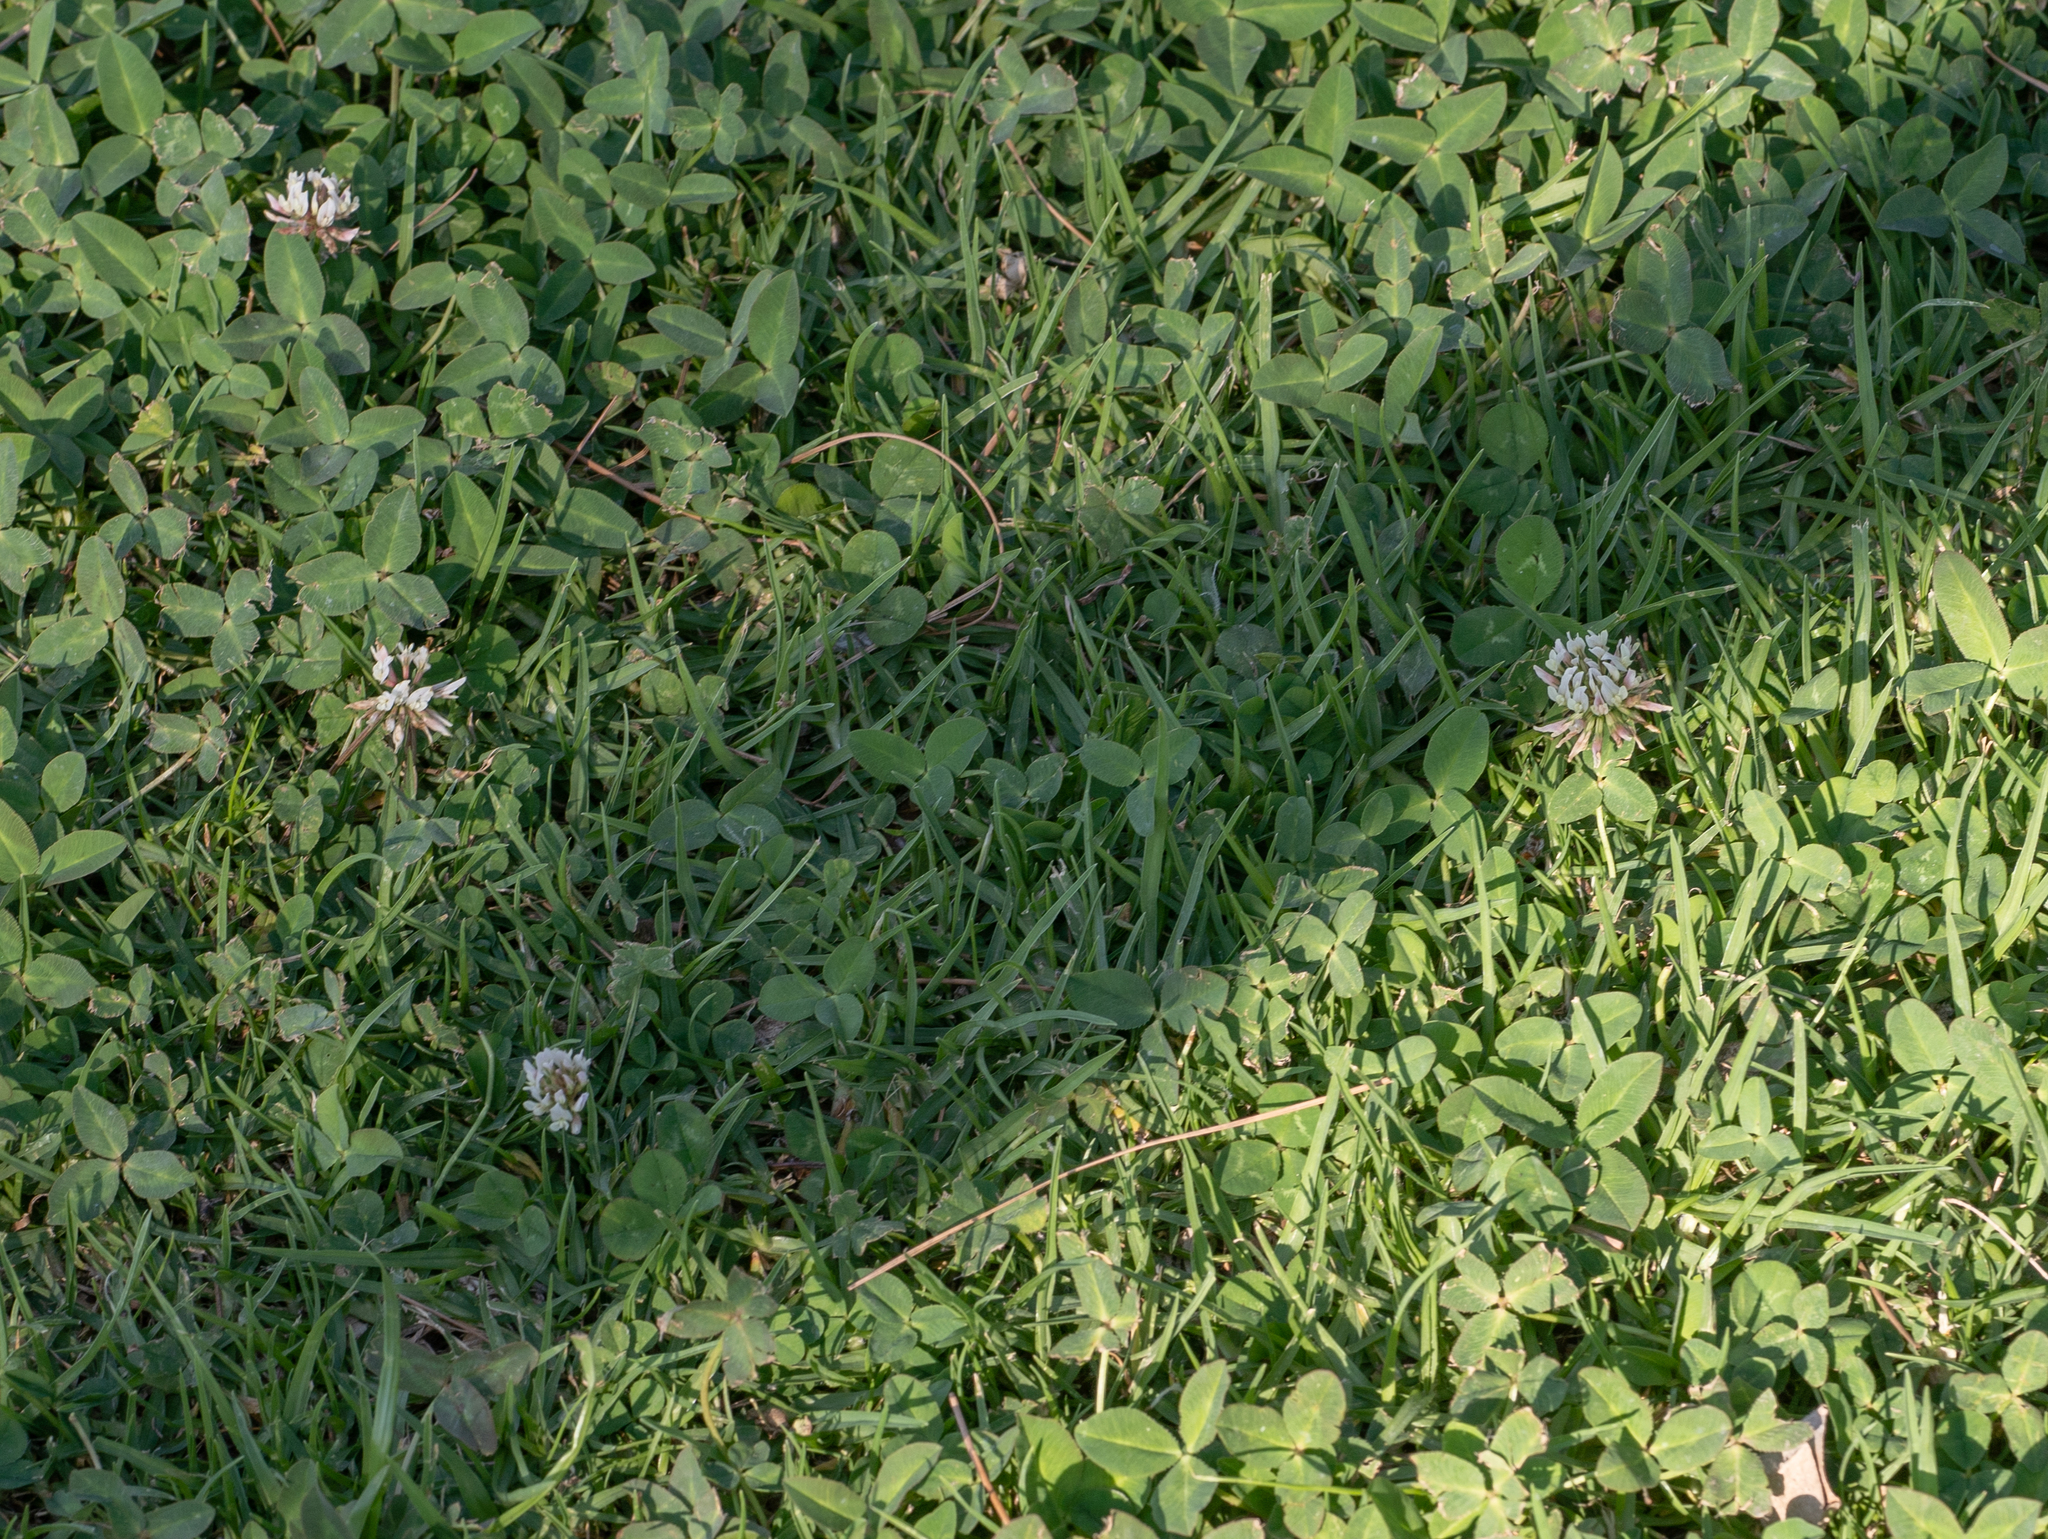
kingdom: Plantae
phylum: Tracheophyta
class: Magnoliopsida
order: Fabales
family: Fabaceae
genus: Trifolium
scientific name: Trifolium repens
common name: White clover
